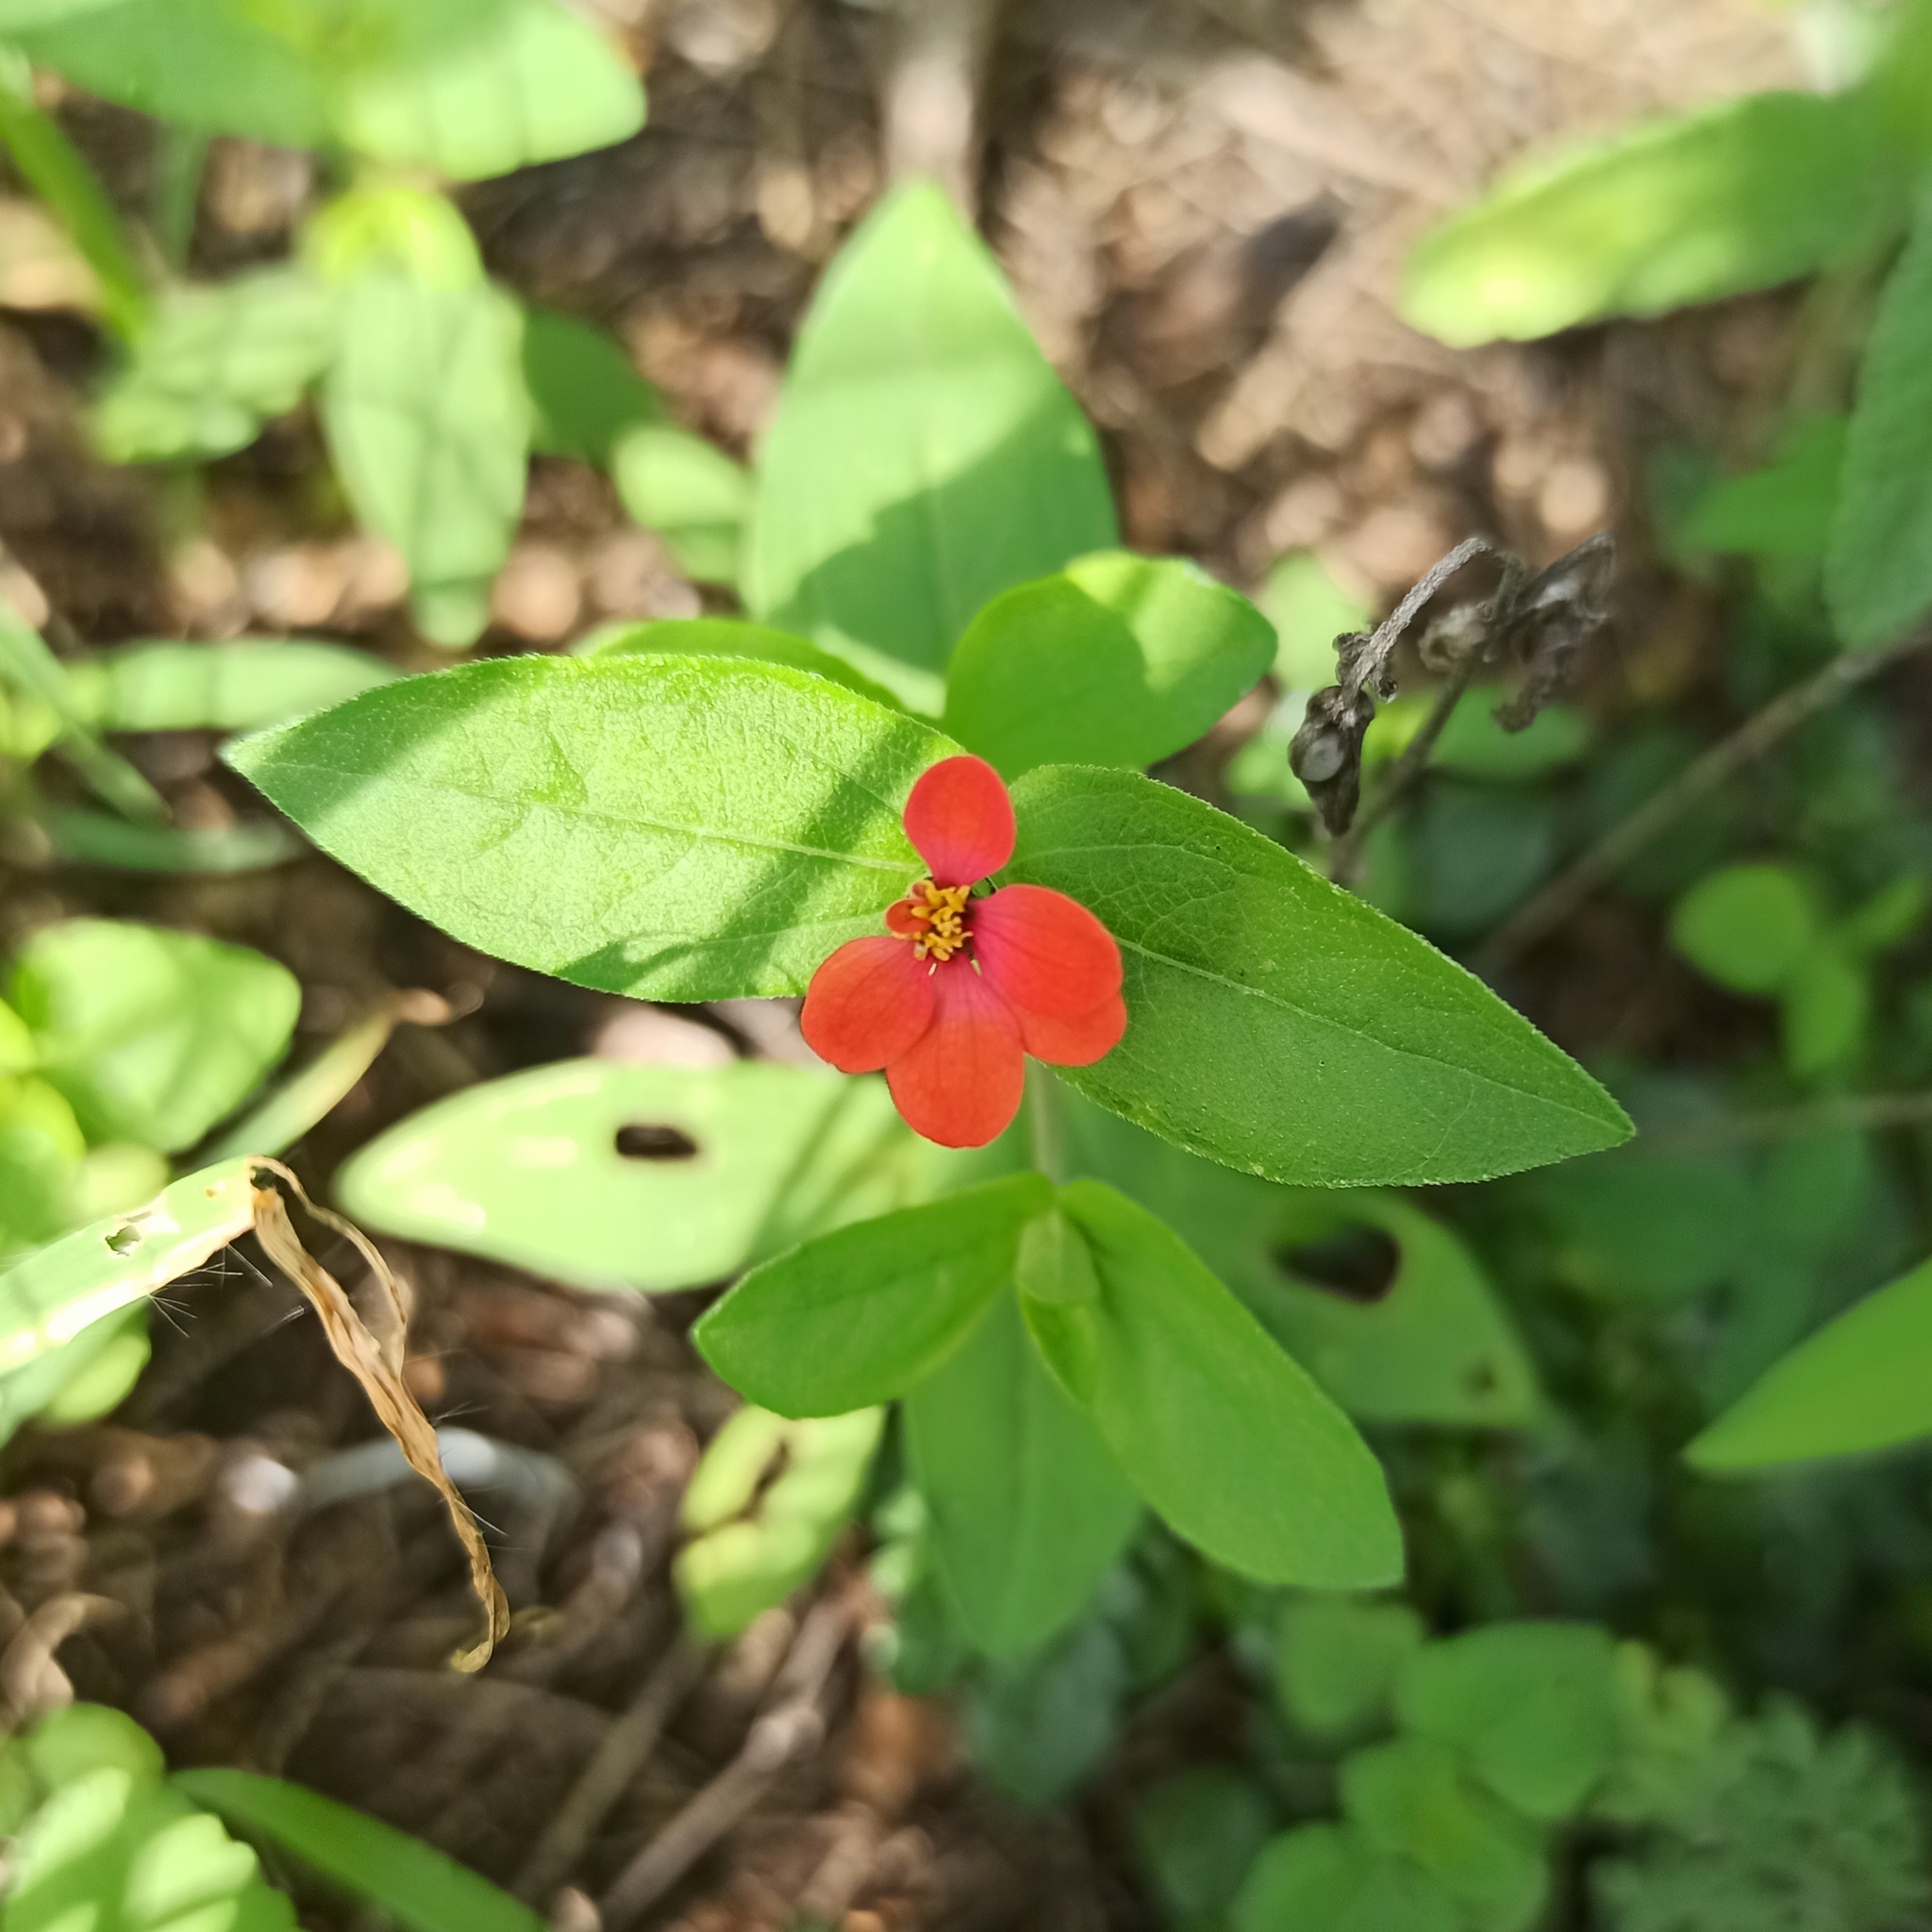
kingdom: Plantae
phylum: Tracheophyta
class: Magnoliopsida
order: Asterales
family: Asteraceae
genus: Zinnia
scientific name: Zinnia peruviana
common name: Peruvian zinnia
